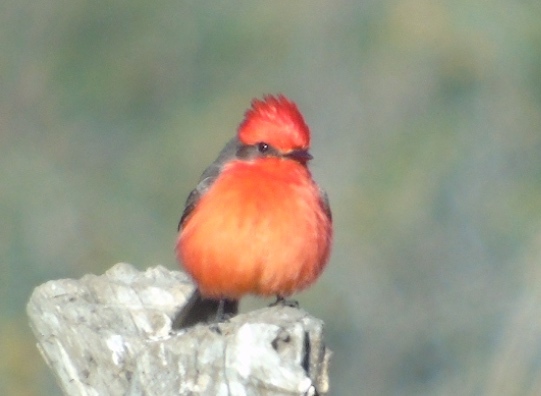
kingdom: Animalia
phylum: Chordata
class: Aves
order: Passeriformes
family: Tyrannidae
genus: Pyrocephalus
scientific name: Pyrocephalus rubinus
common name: Vermilion flycatcher
